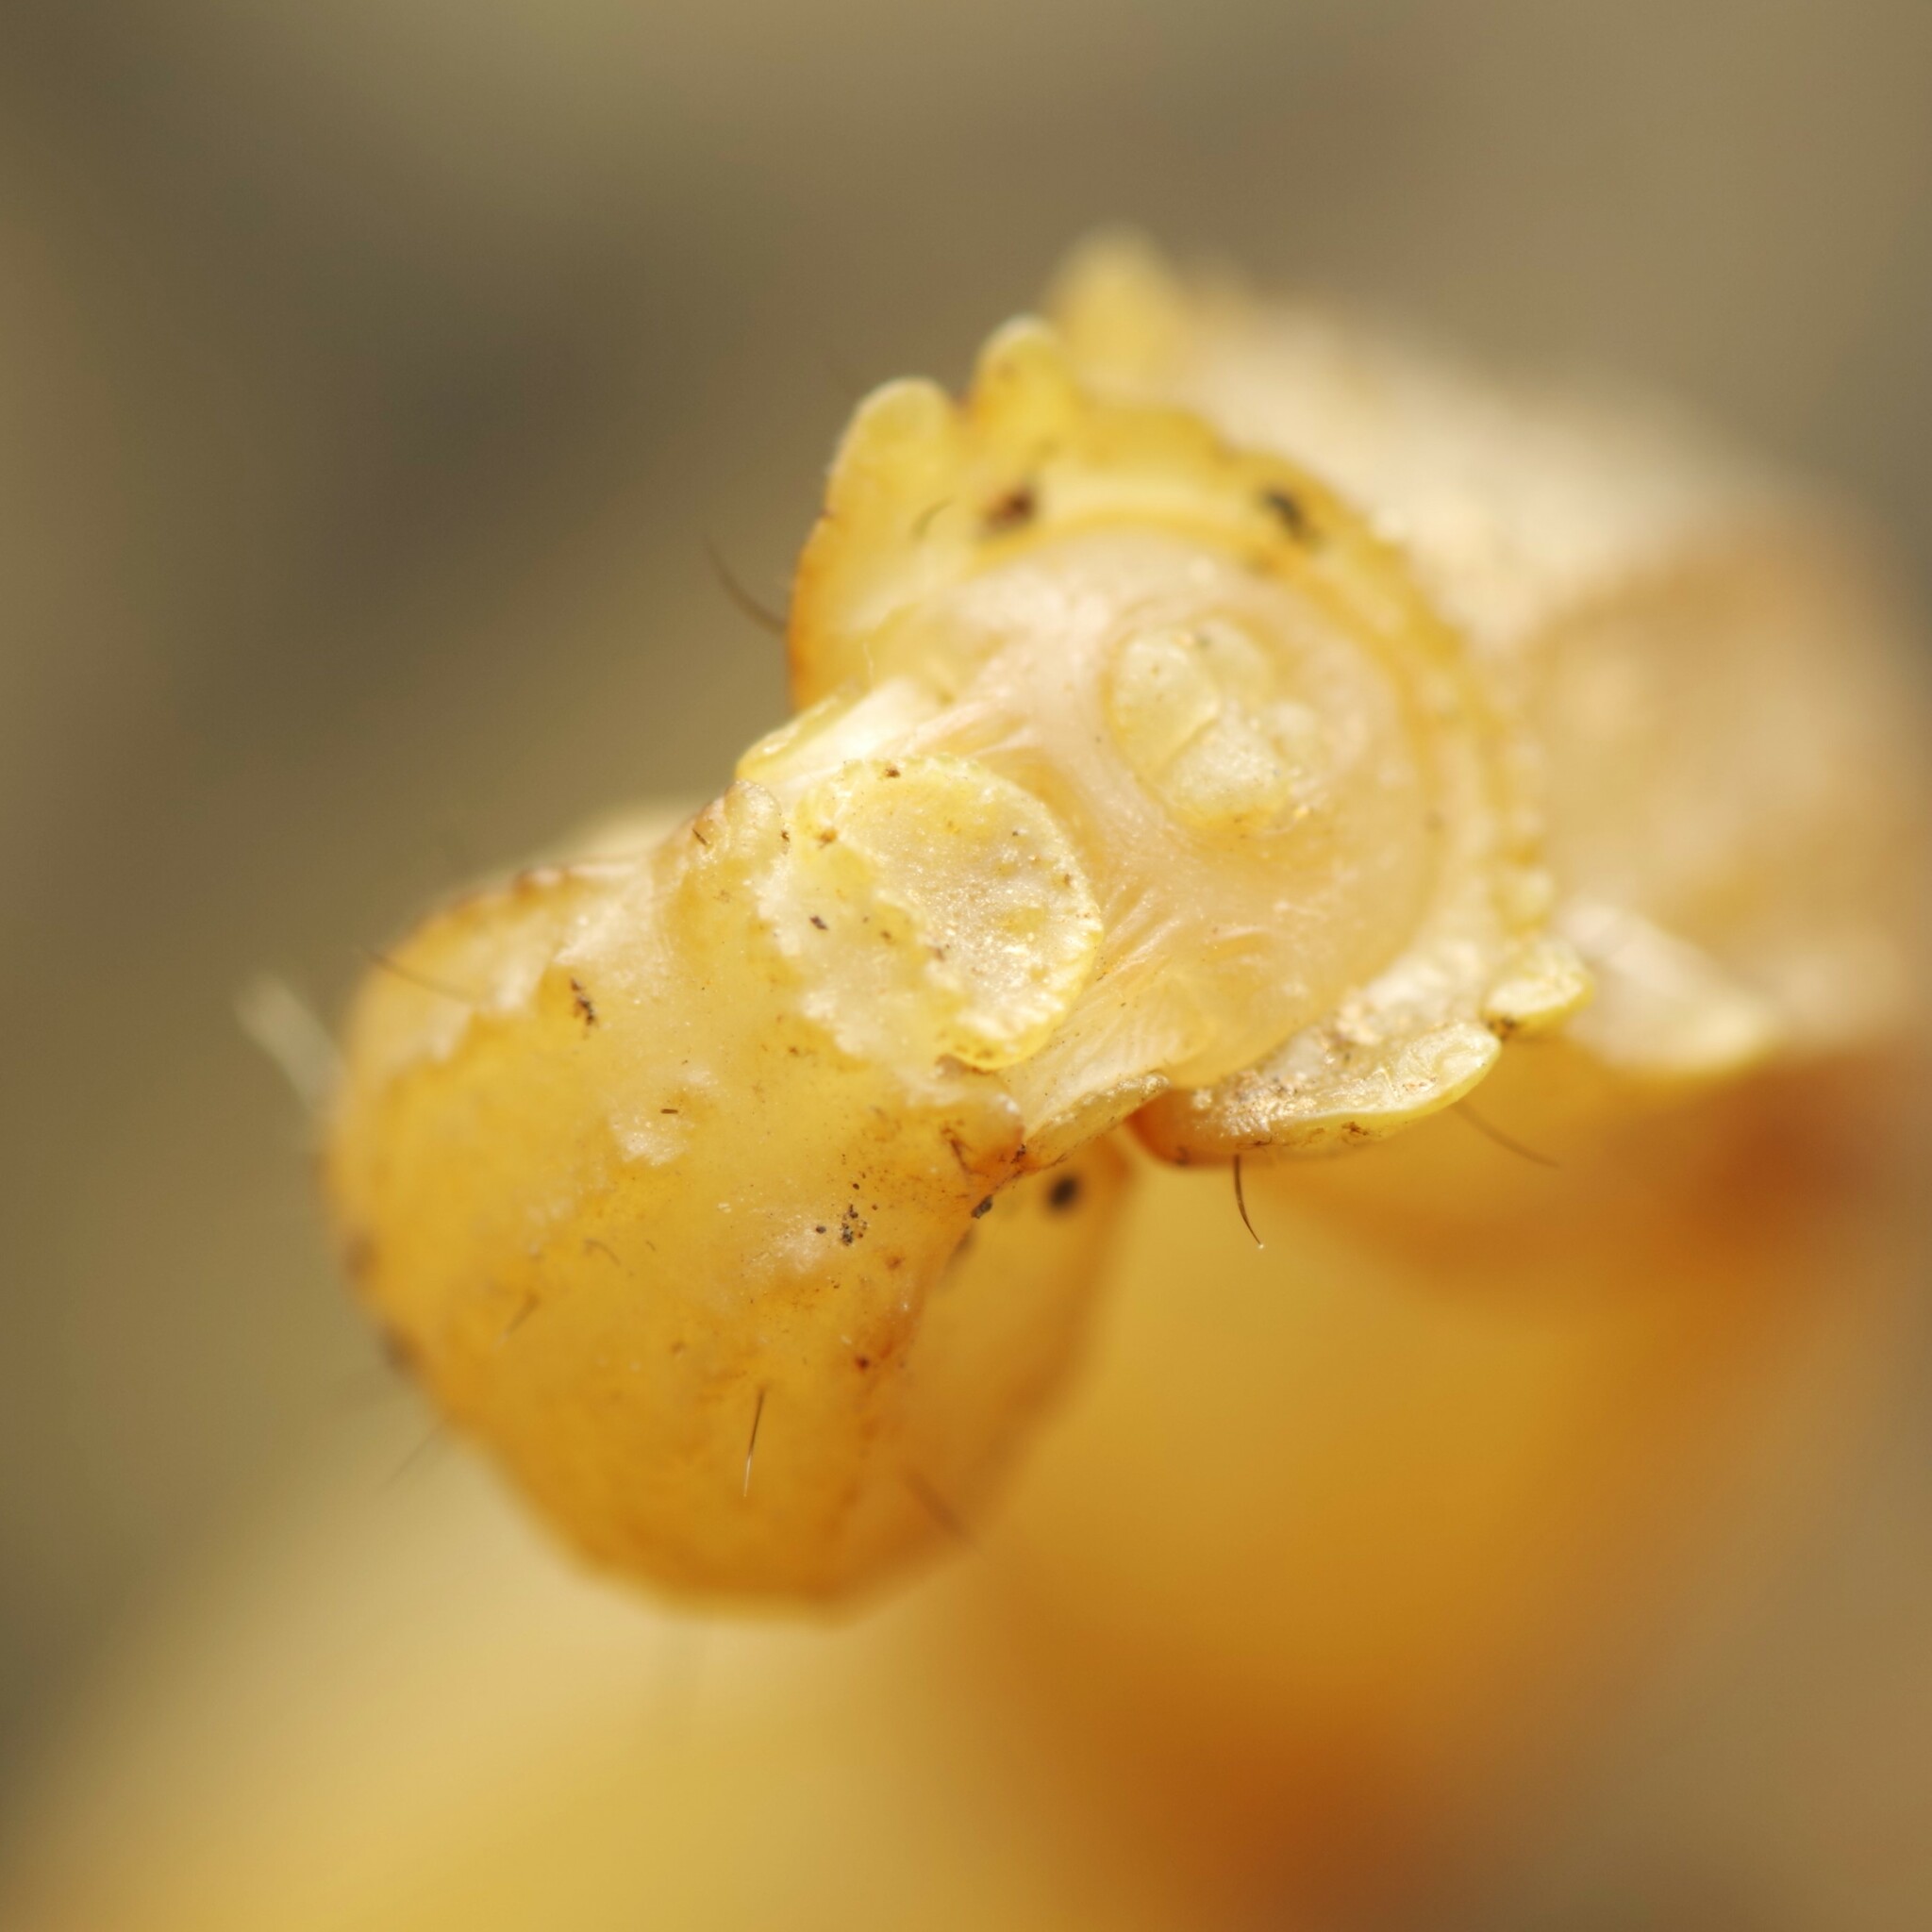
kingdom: Animalia
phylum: Arthropoda
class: Arachnida
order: Scorpiones
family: Buthidae
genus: Buthus
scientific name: Buthus pyrenaeus
